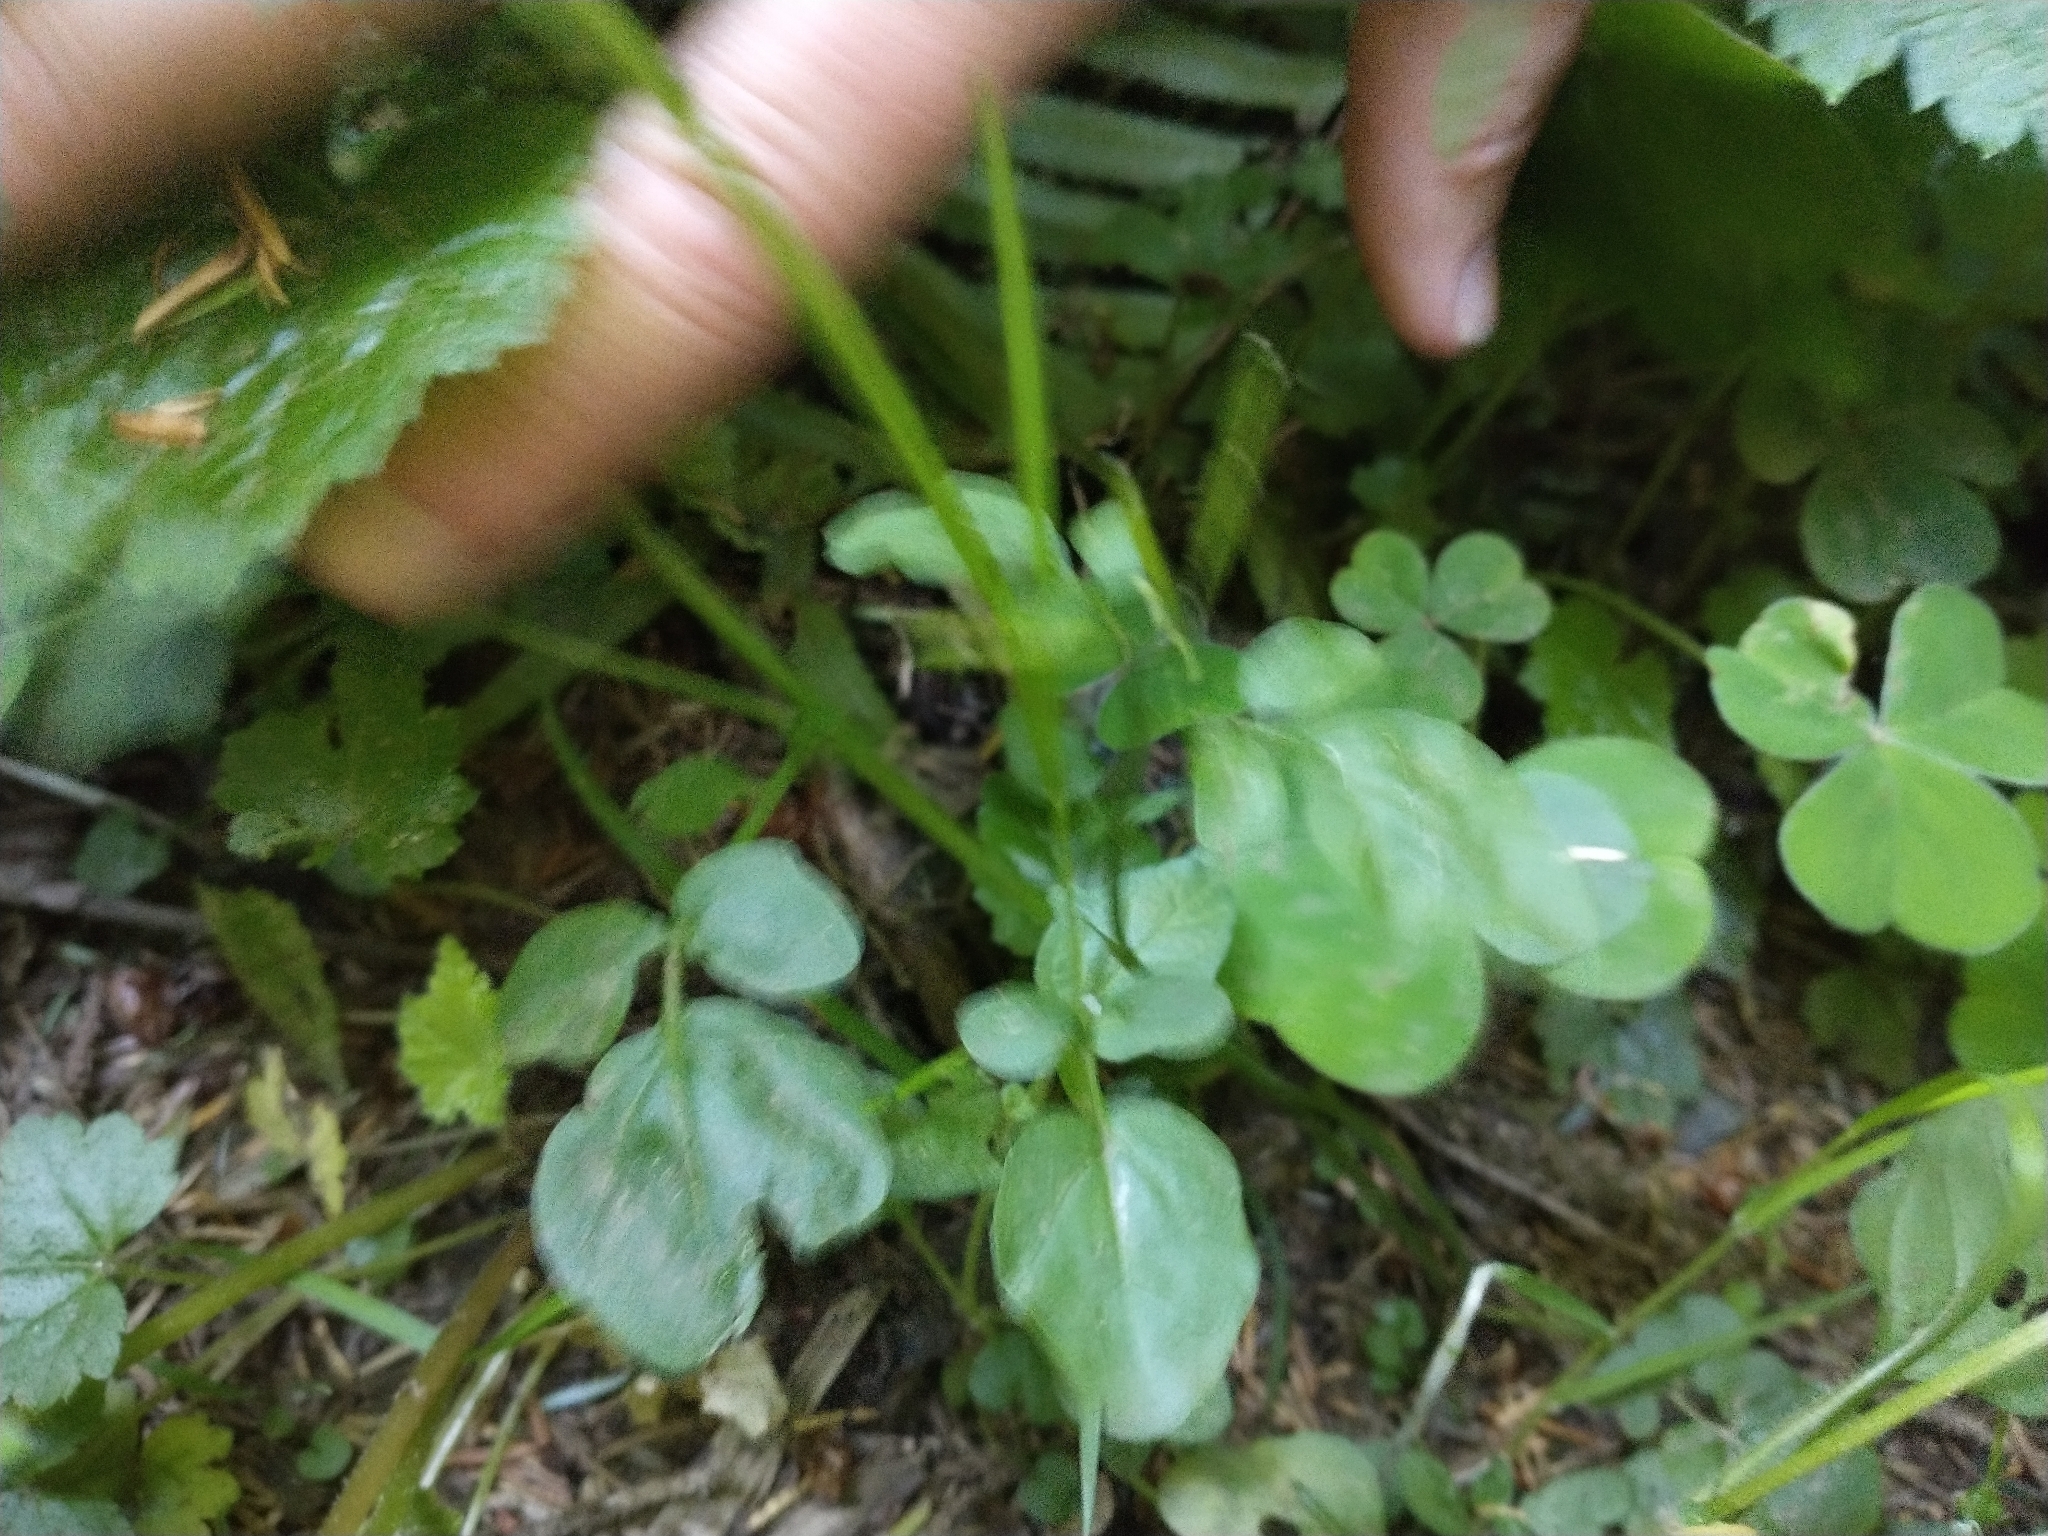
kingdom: Plantae
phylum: Tracheophyta
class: Magnoliopsida
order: Brassicales
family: Brassicaceae
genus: Cardamine
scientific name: Cardamine breweri
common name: Brewer's bittercress
